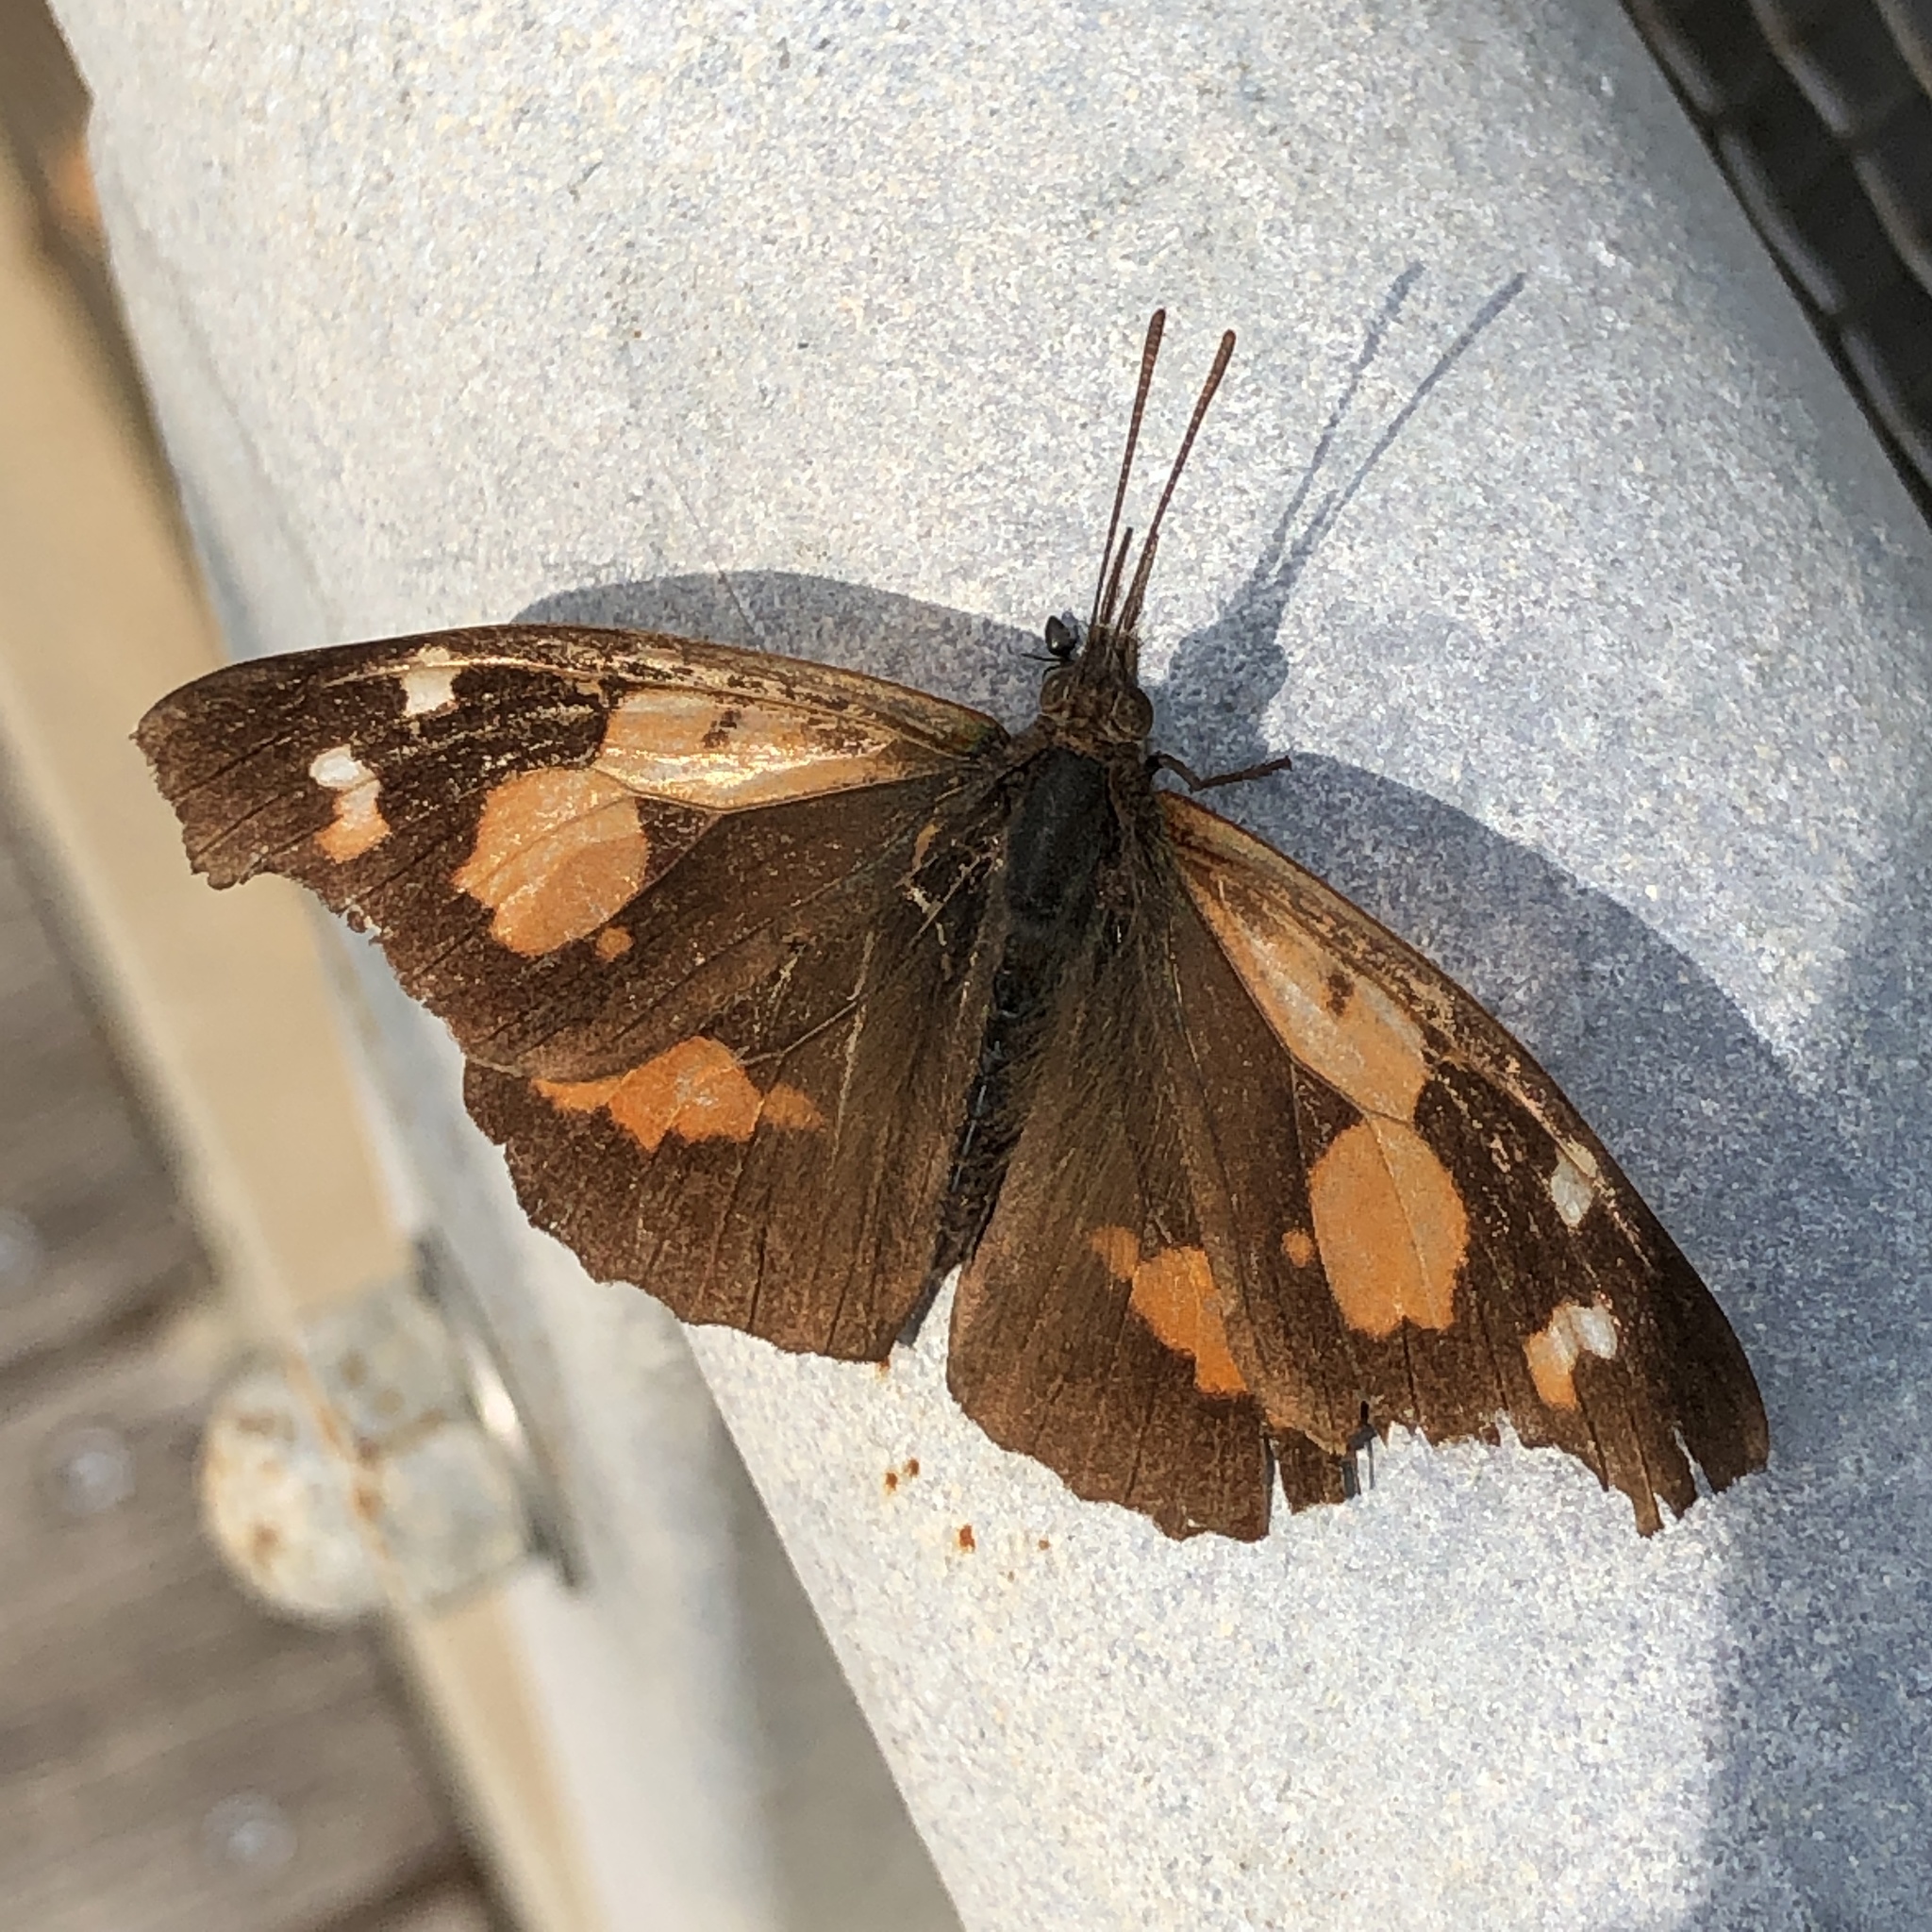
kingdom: Animalia
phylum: Arthropoda
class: Insecta
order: Lepidoptera
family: Nymphalidae
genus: Libythea
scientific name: Libythea lepita
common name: Common beak
